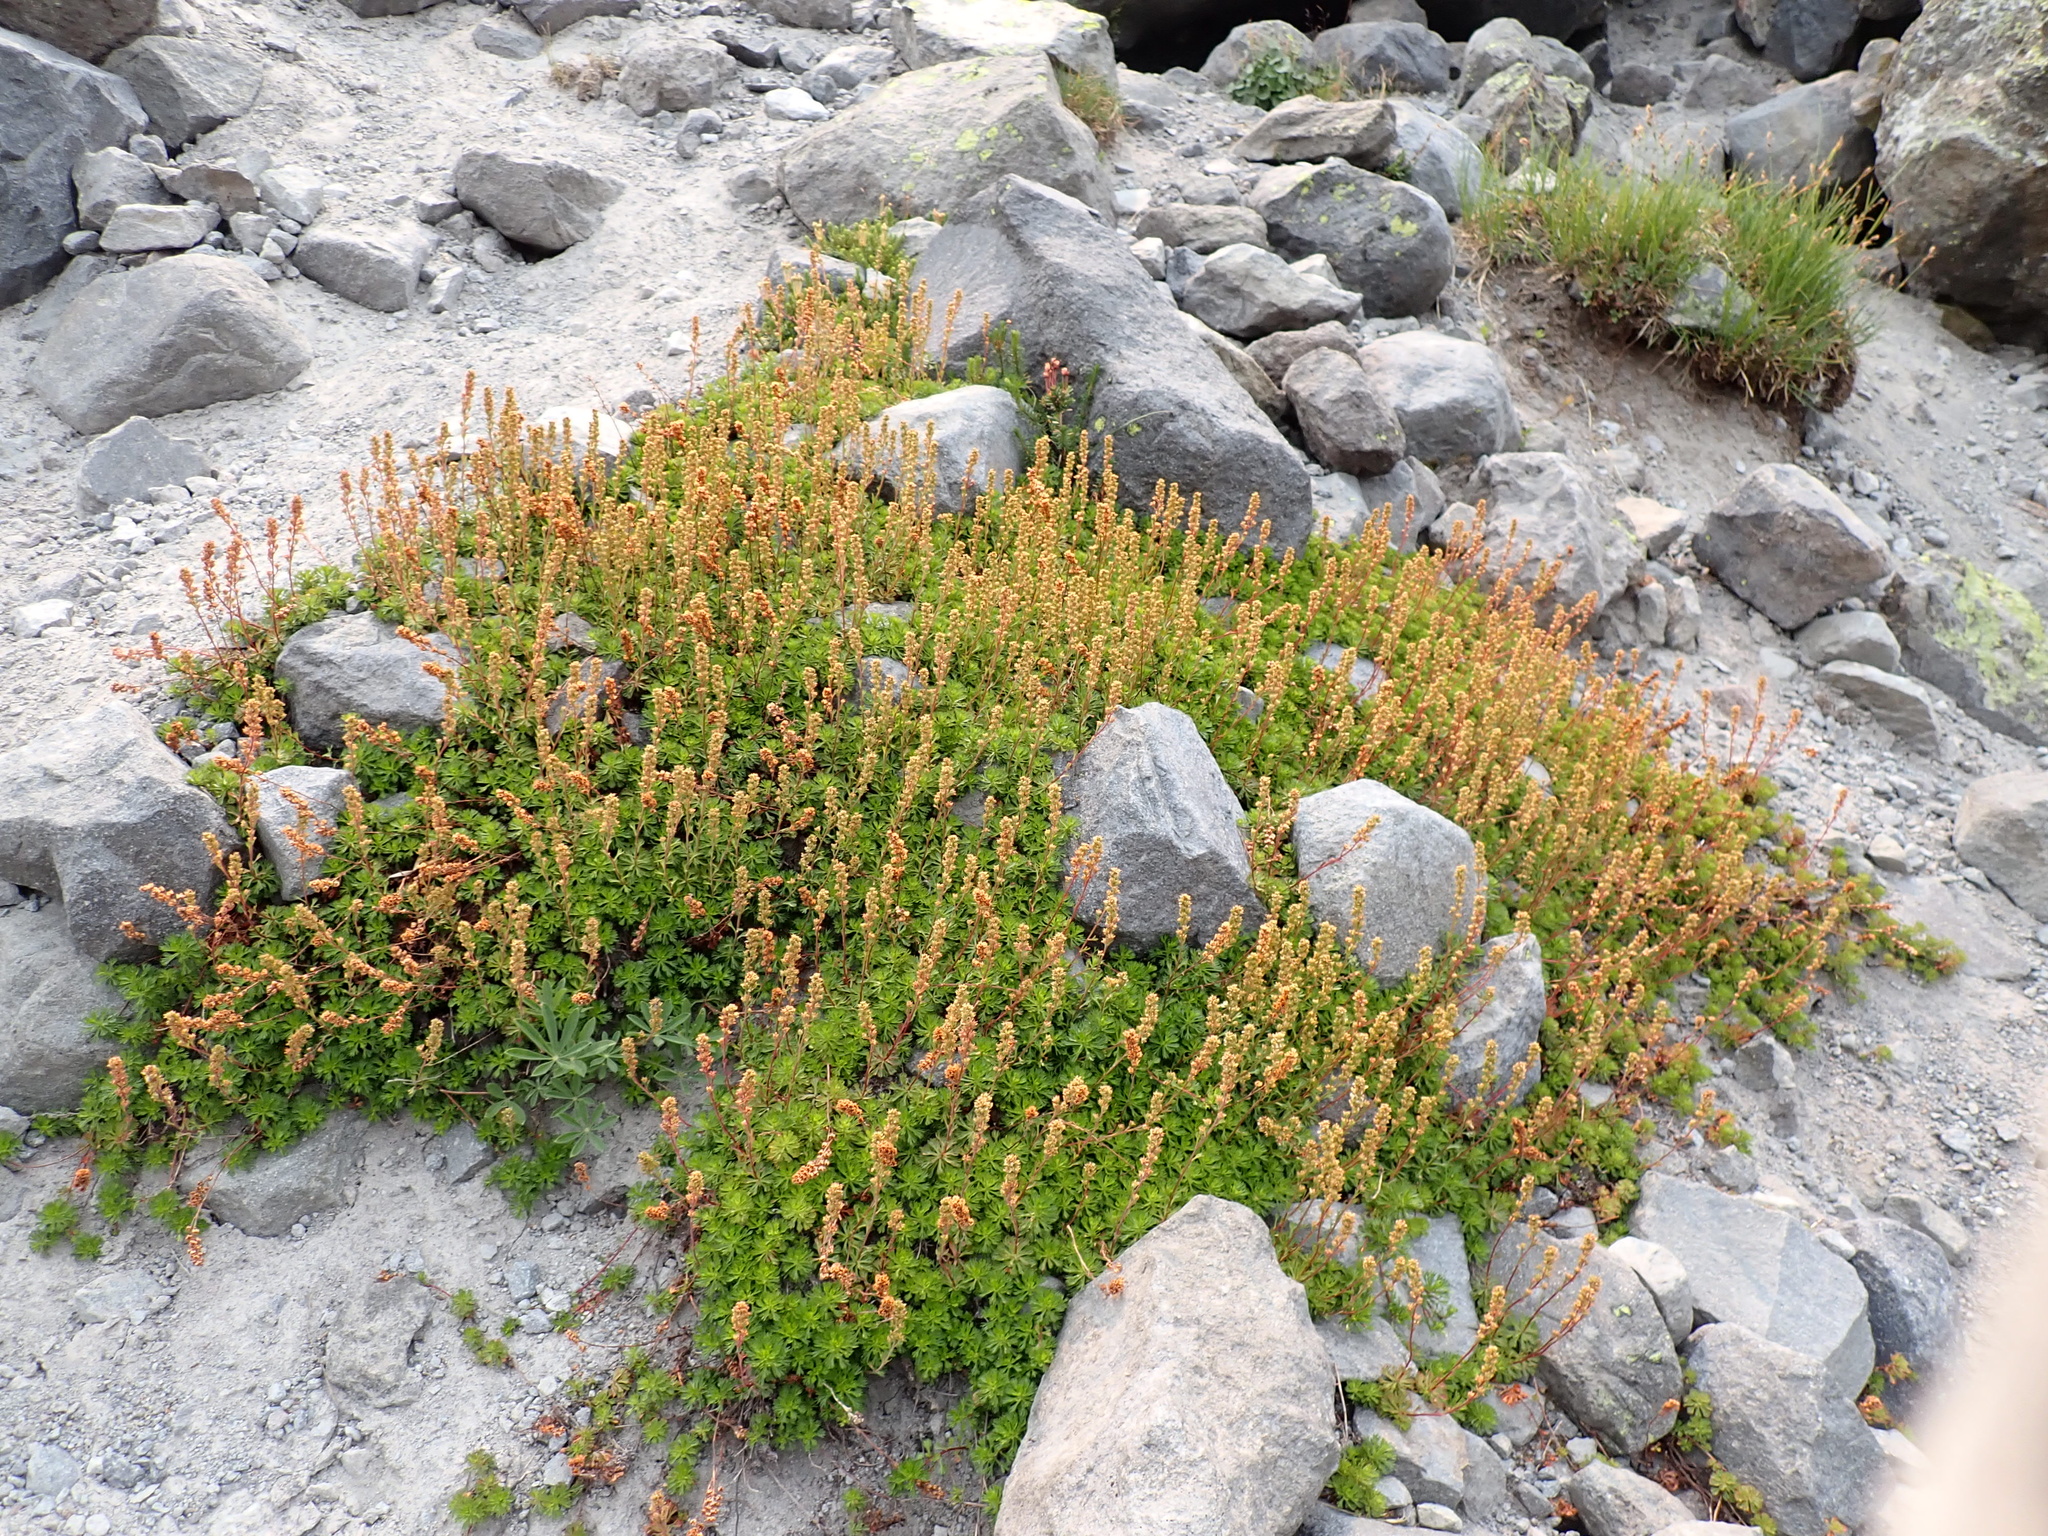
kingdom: Plantae
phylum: Tracheophyta
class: Magnoliopsida
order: Rosales
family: Rosaceae
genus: Luetkea
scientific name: Luetkea pectinata
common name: Partridgefoot
